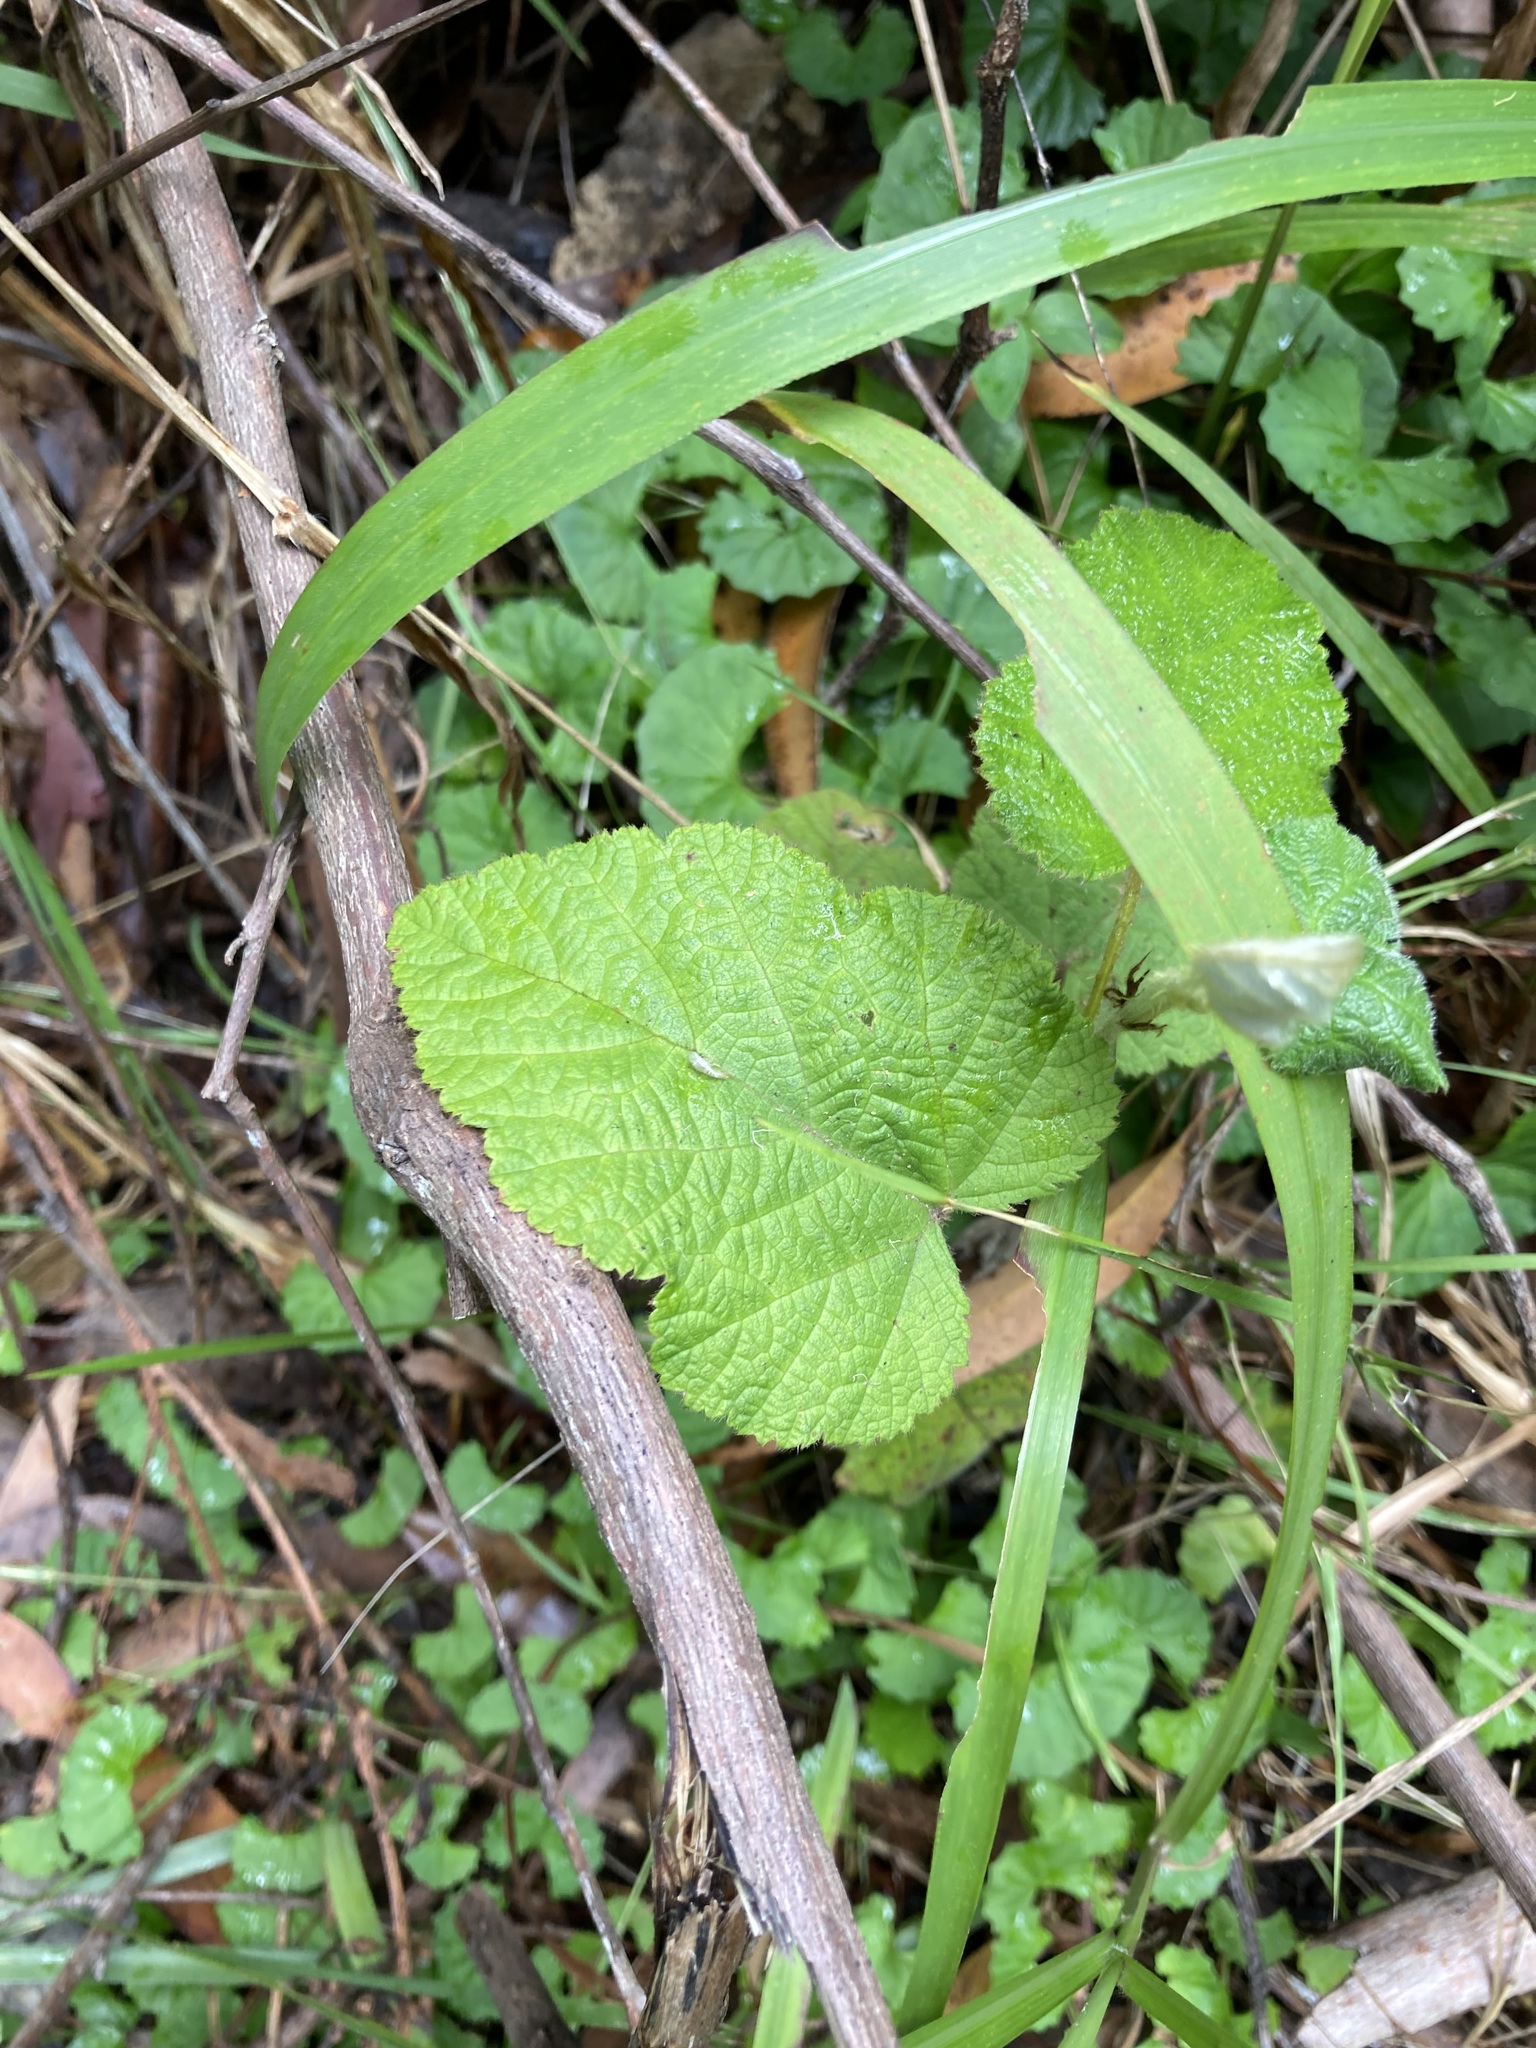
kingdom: Plantae
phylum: Tracheophyta
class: Magnoliopsida
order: Rosales
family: Rosaceae
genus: Rubus
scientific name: Rubus moluccanus
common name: Wild raspberry
